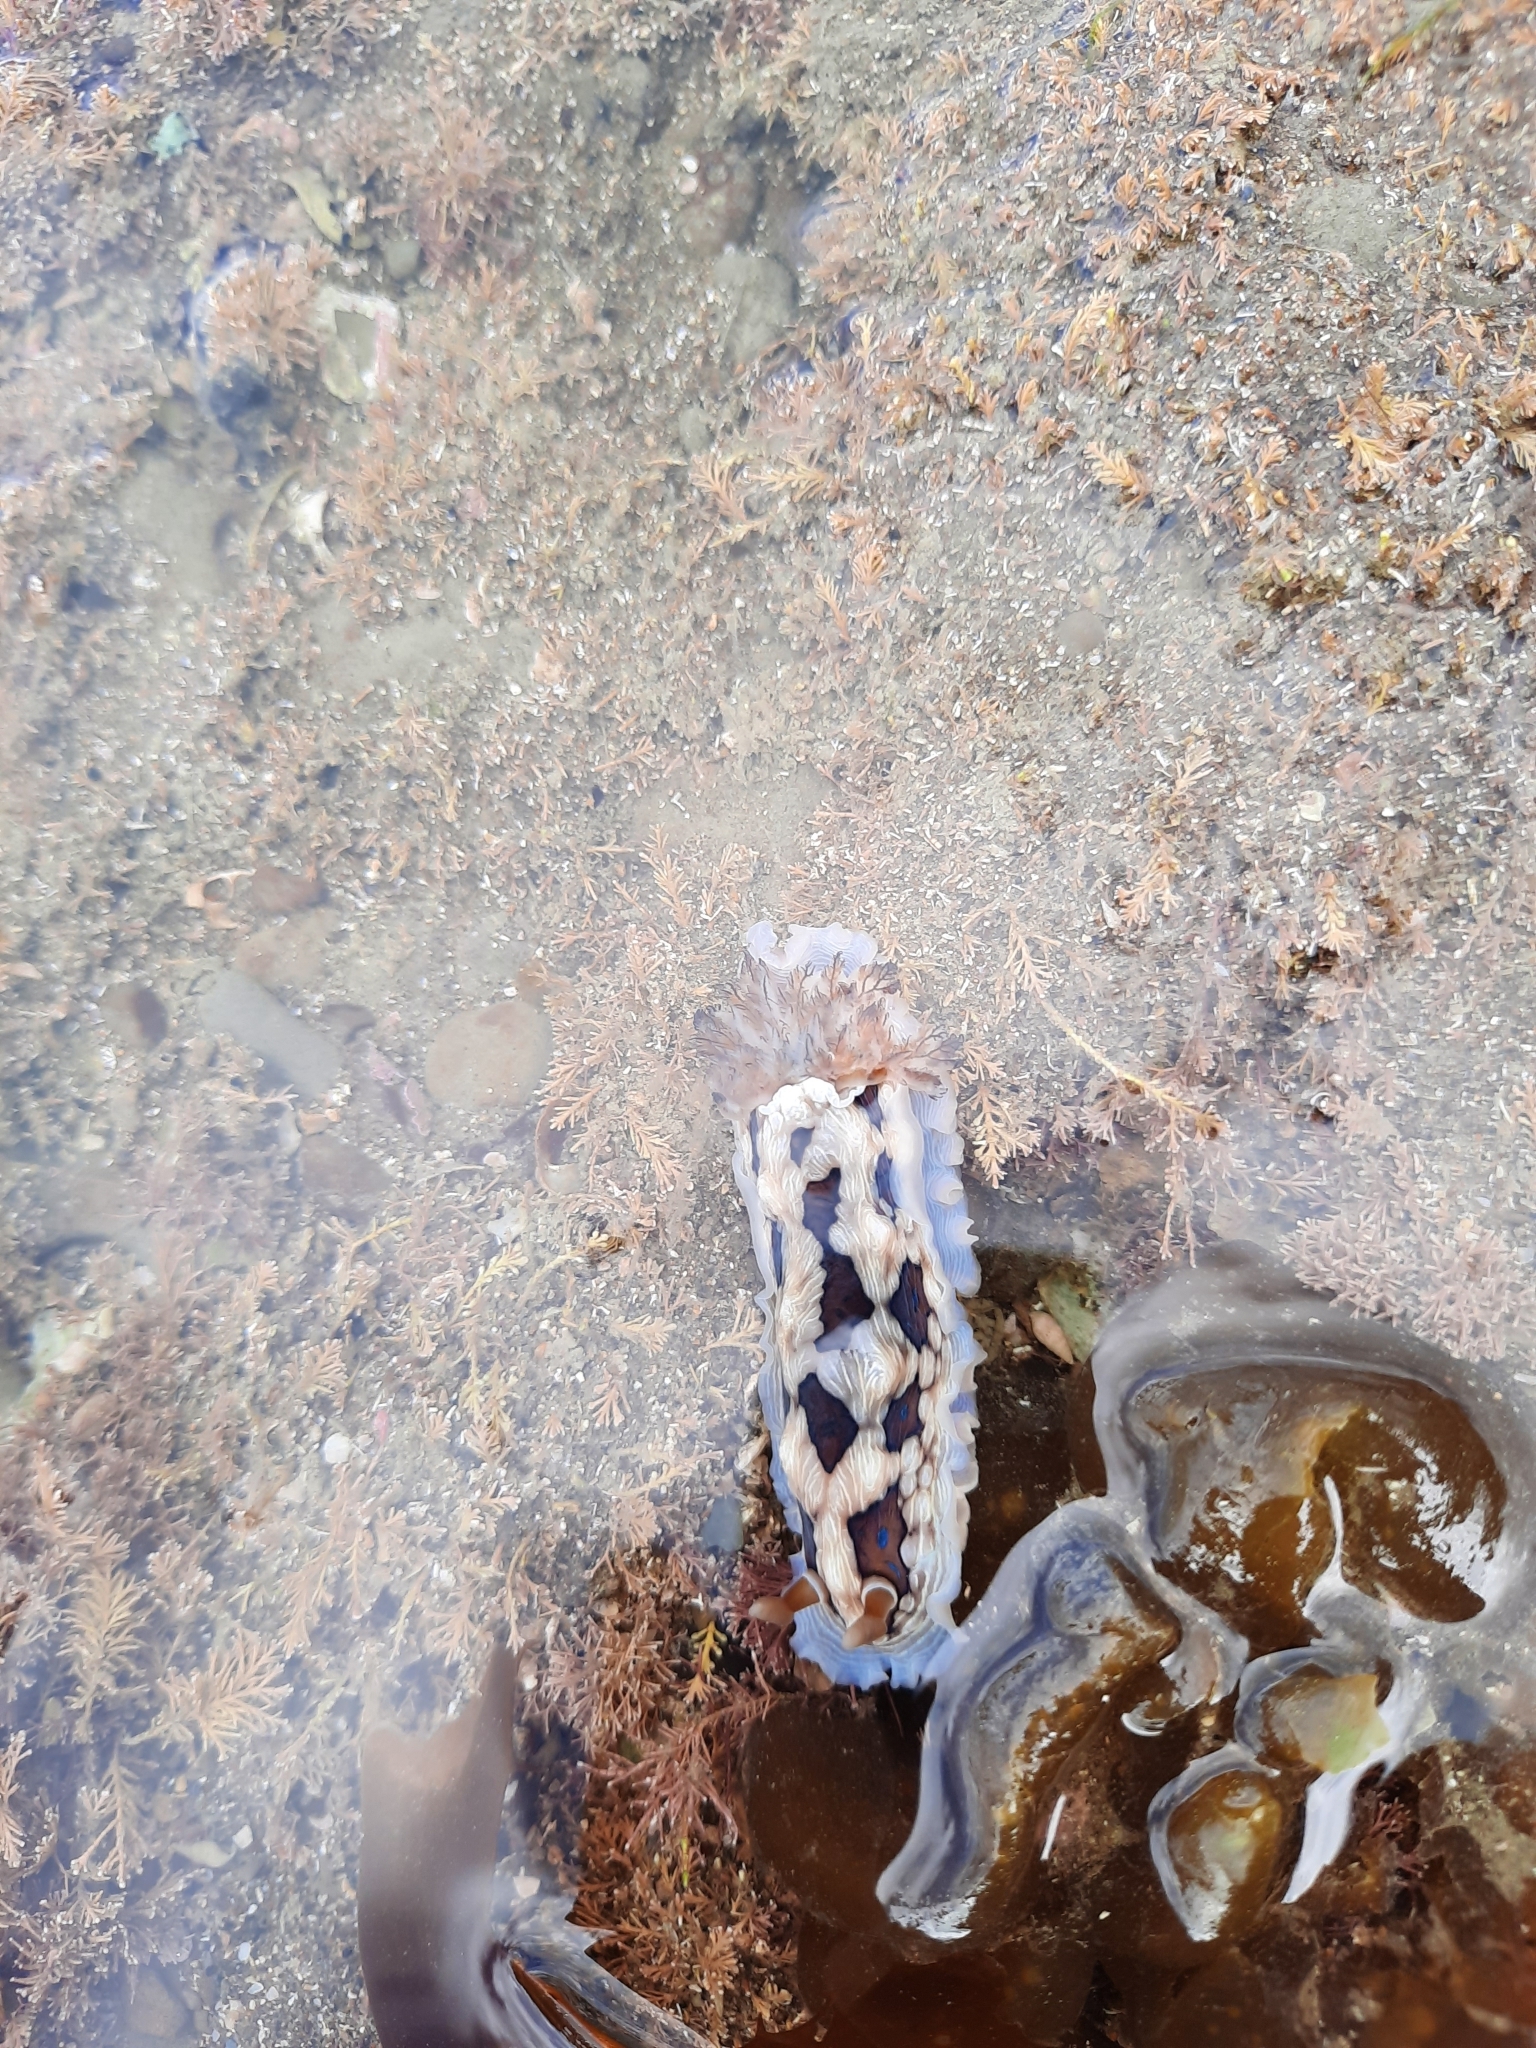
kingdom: Animalia
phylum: Mollusca
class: Gastropoda
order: Nudibranchia
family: Dendrodorididae
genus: Dendrodoris
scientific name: Dendrodoris krusensternii
